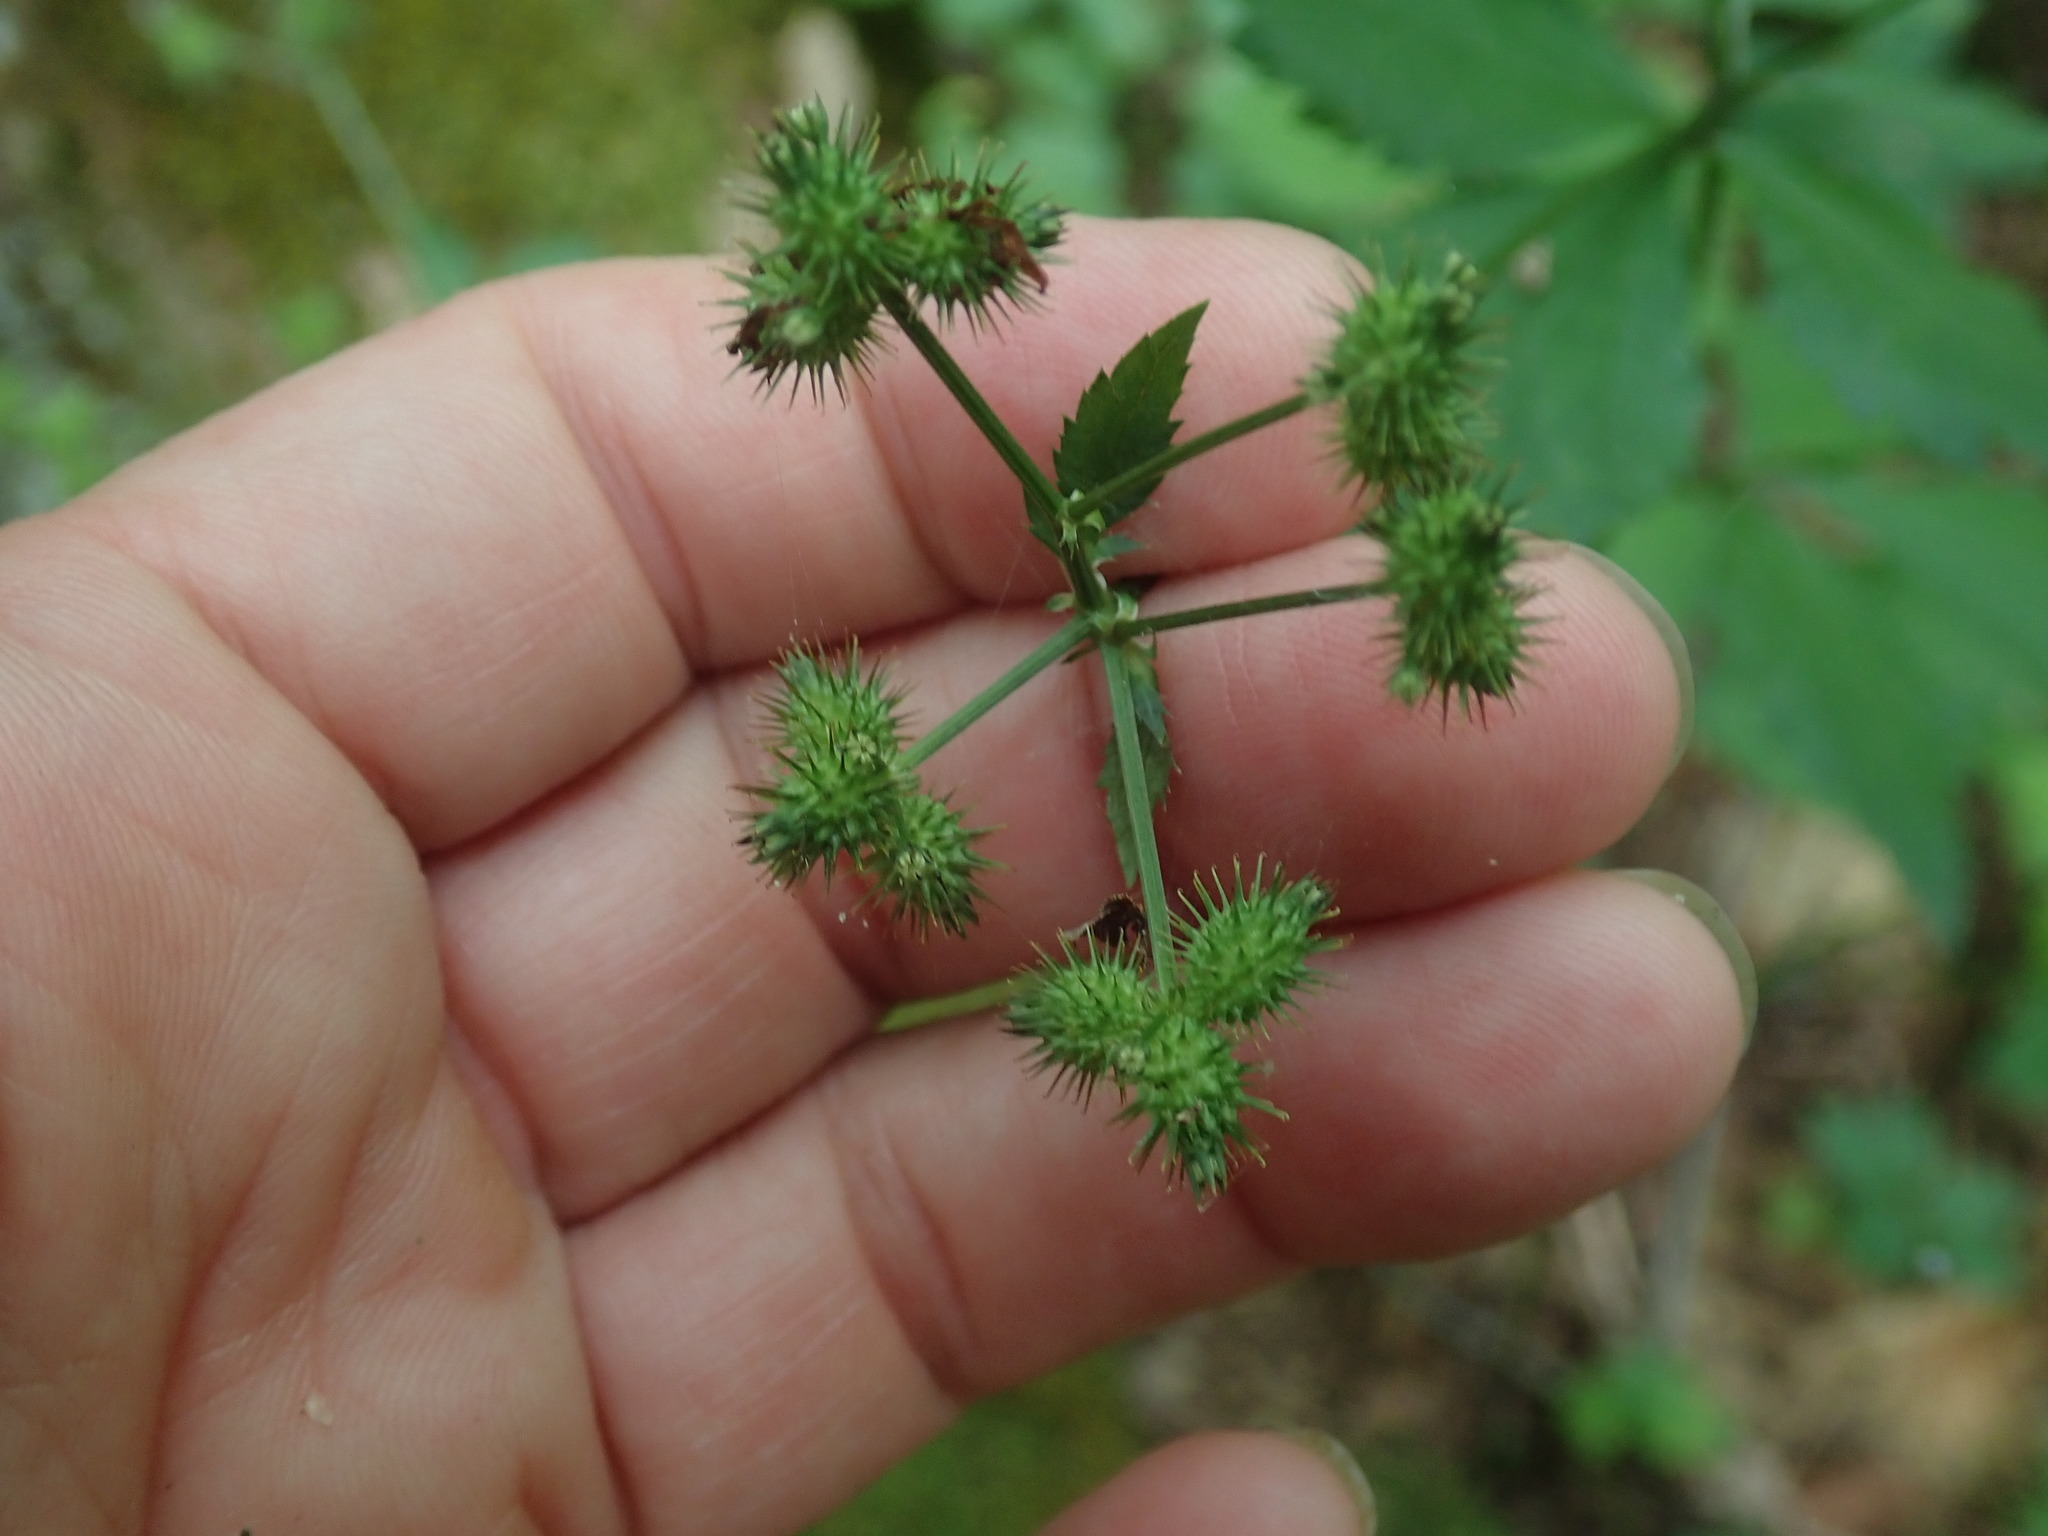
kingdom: Plantae
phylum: Tracheophyta
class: Magnoliopsida
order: Apiales
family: Apiaceae
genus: Sanicula
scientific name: Sanicula trifoliata
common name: Beaked sanicle
